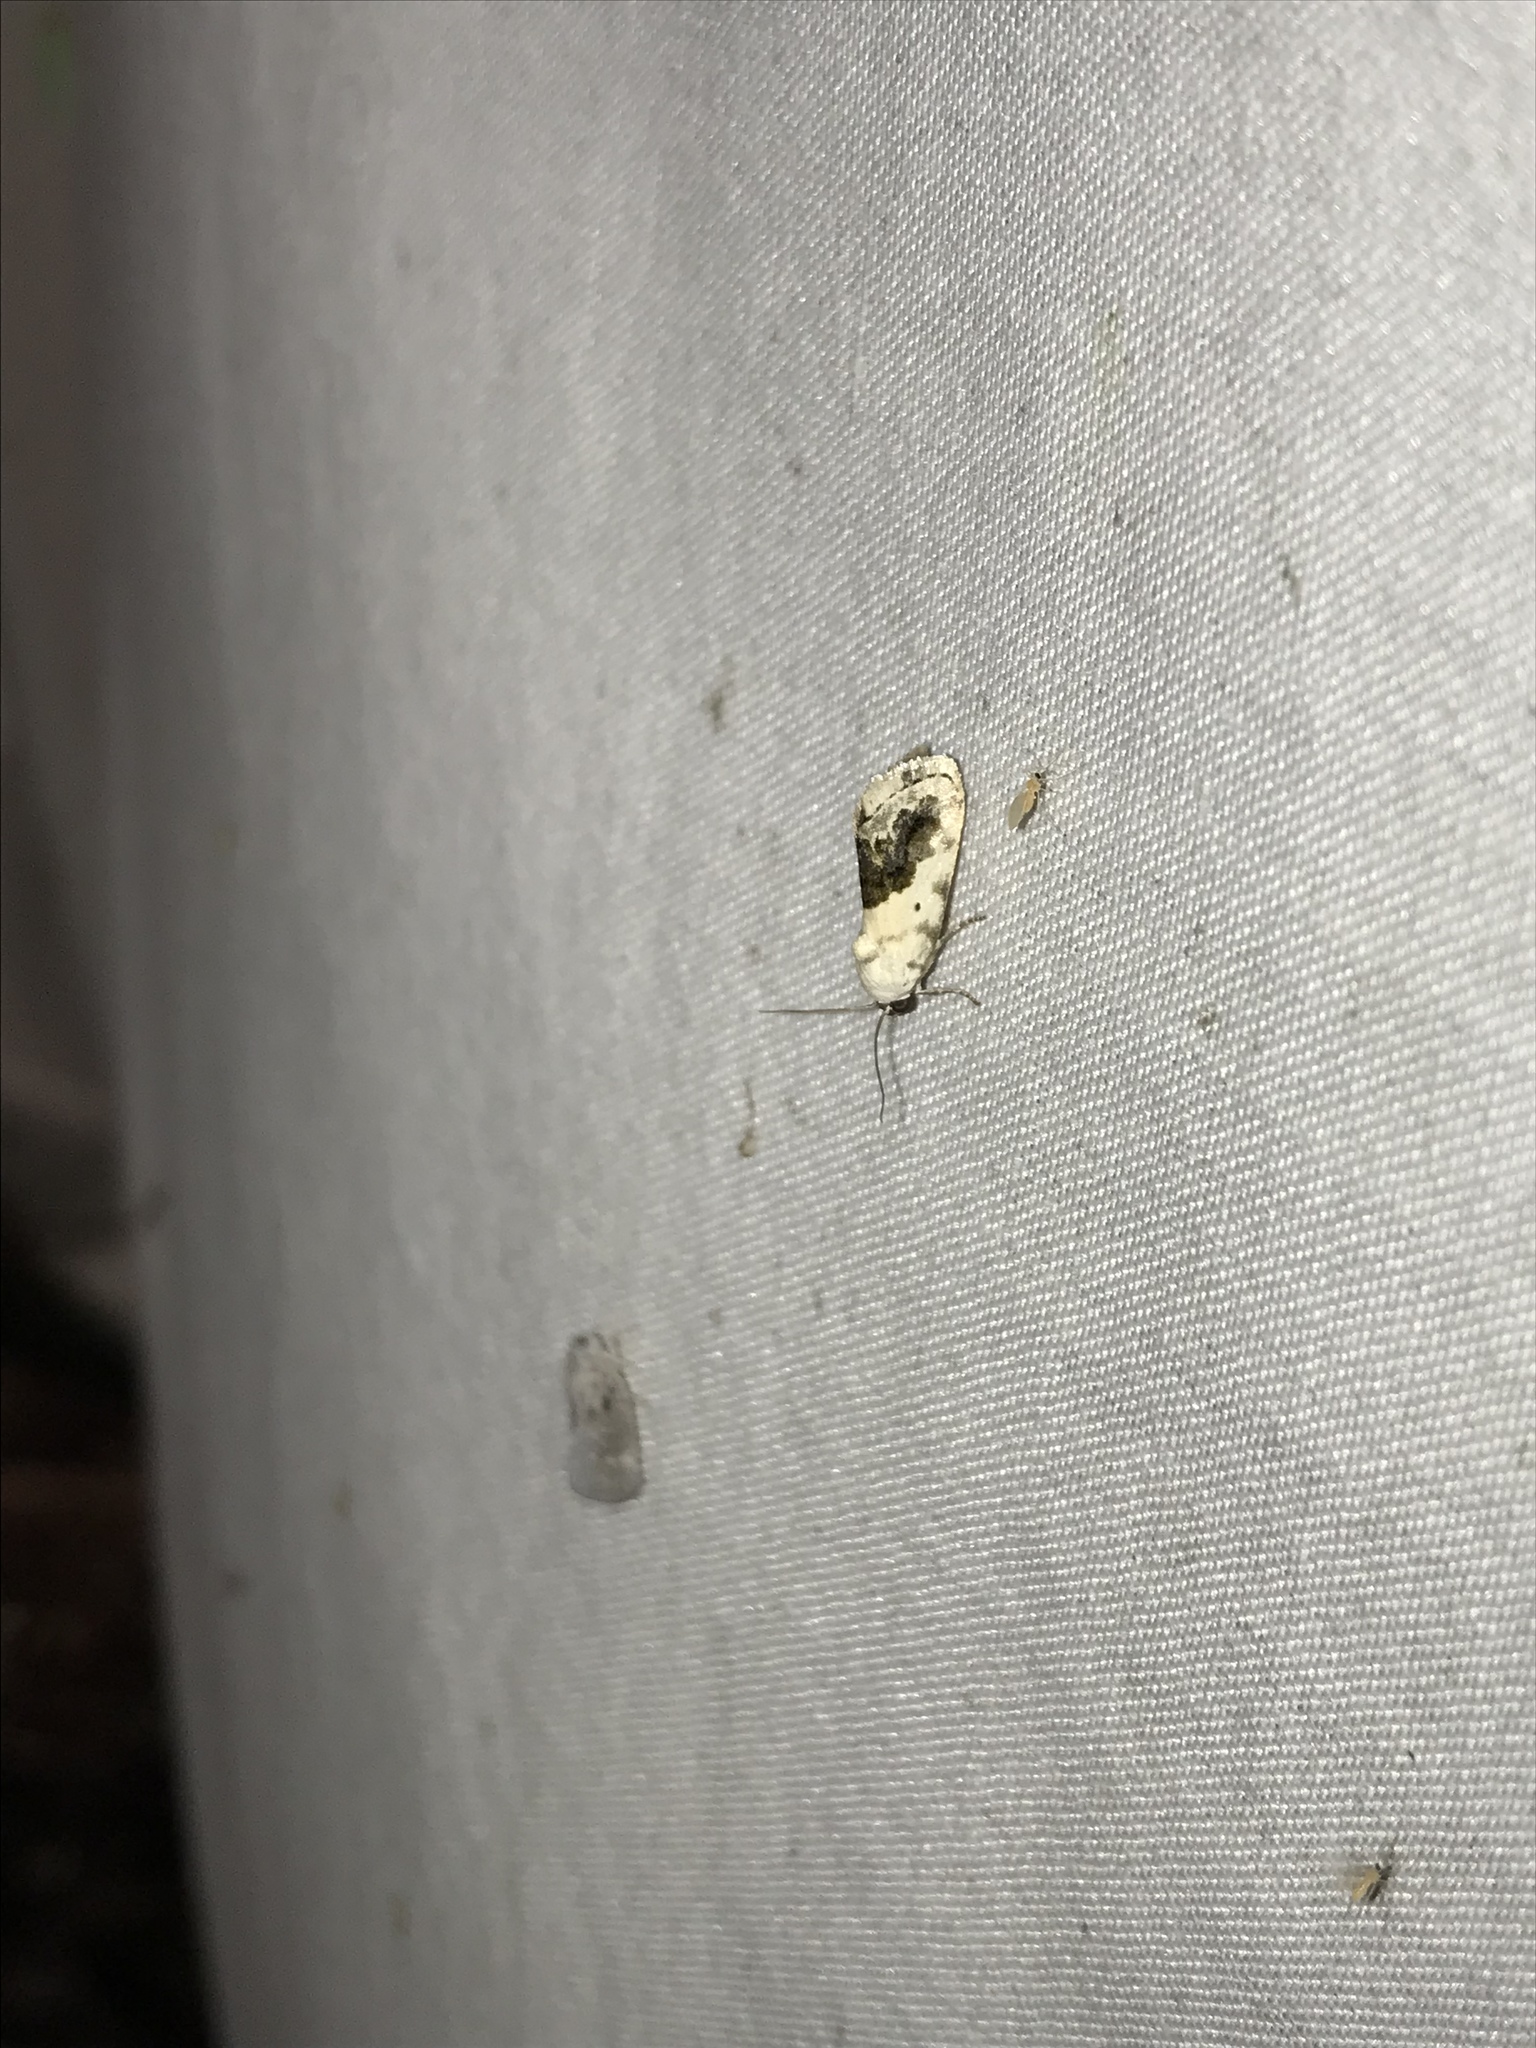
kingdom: Animalia
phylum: Arthropoda
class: Insecta
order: Lepidoptera
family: Noctuidae
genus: Acontia
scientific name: Acontia erastrioides
